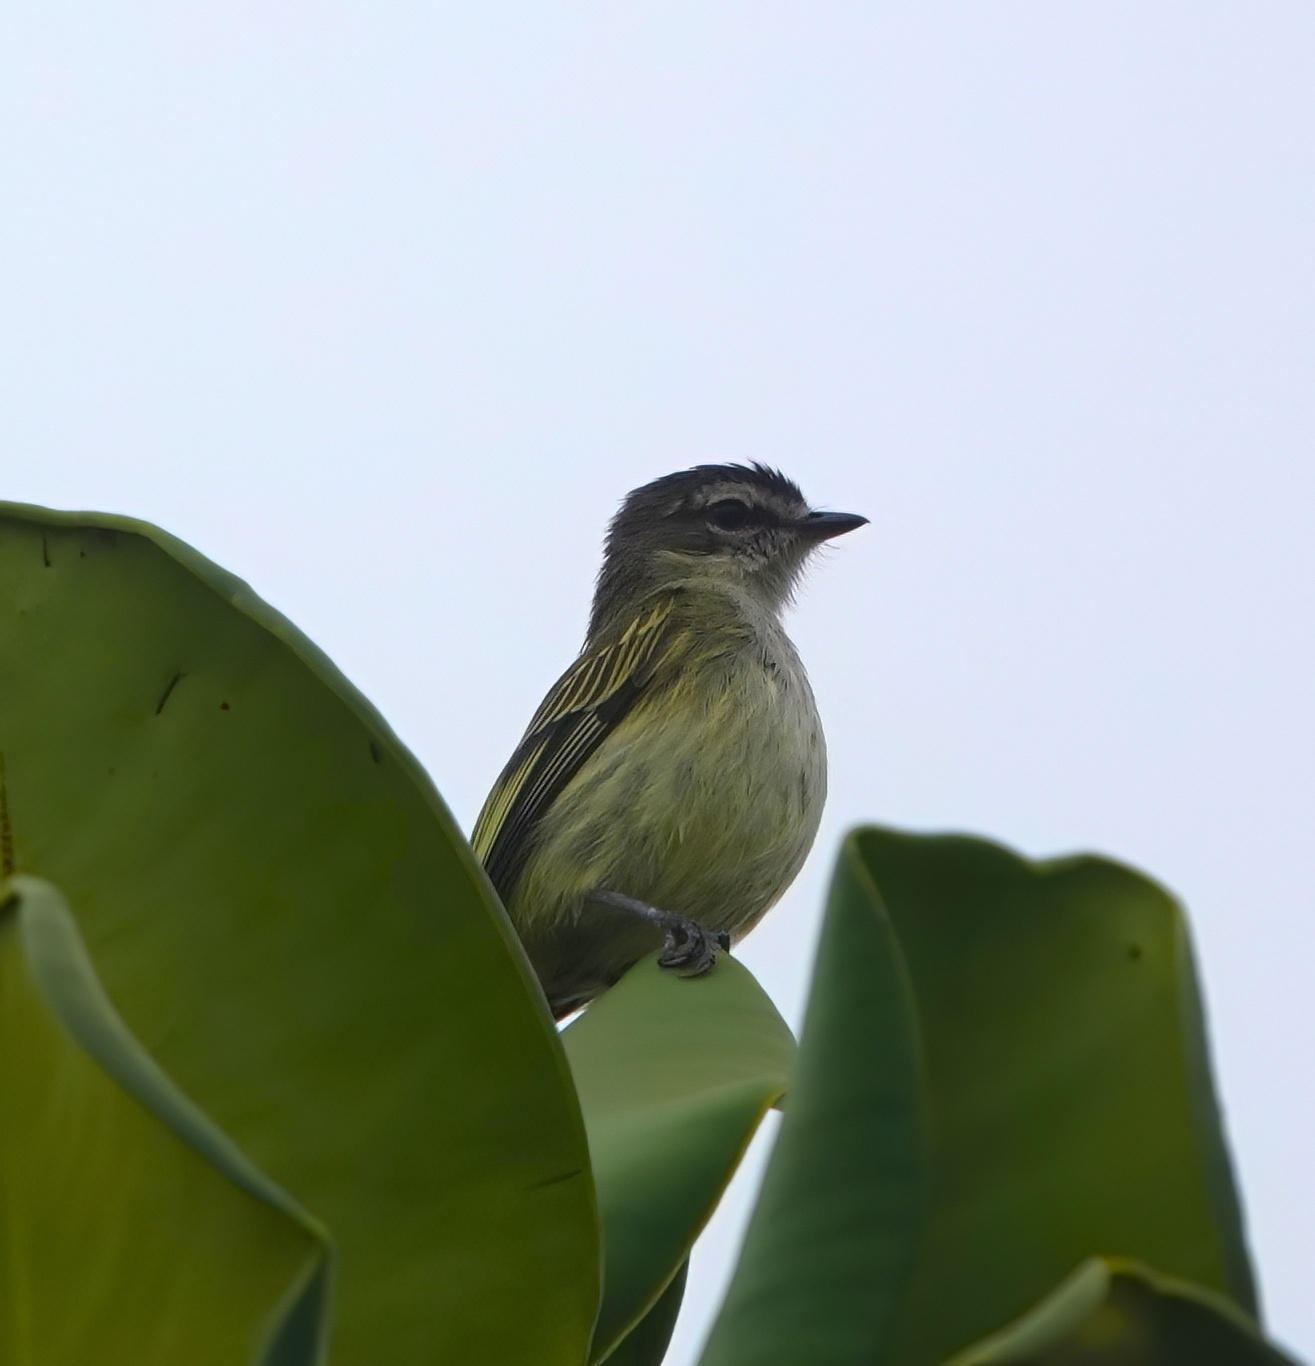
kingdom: Animalia
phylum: Chordata
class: Aves
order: Passeriformes
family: Tyrannidae
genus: Zimmerius
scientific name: Zimmerius vilissimus
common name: Paltry tyrannulet
